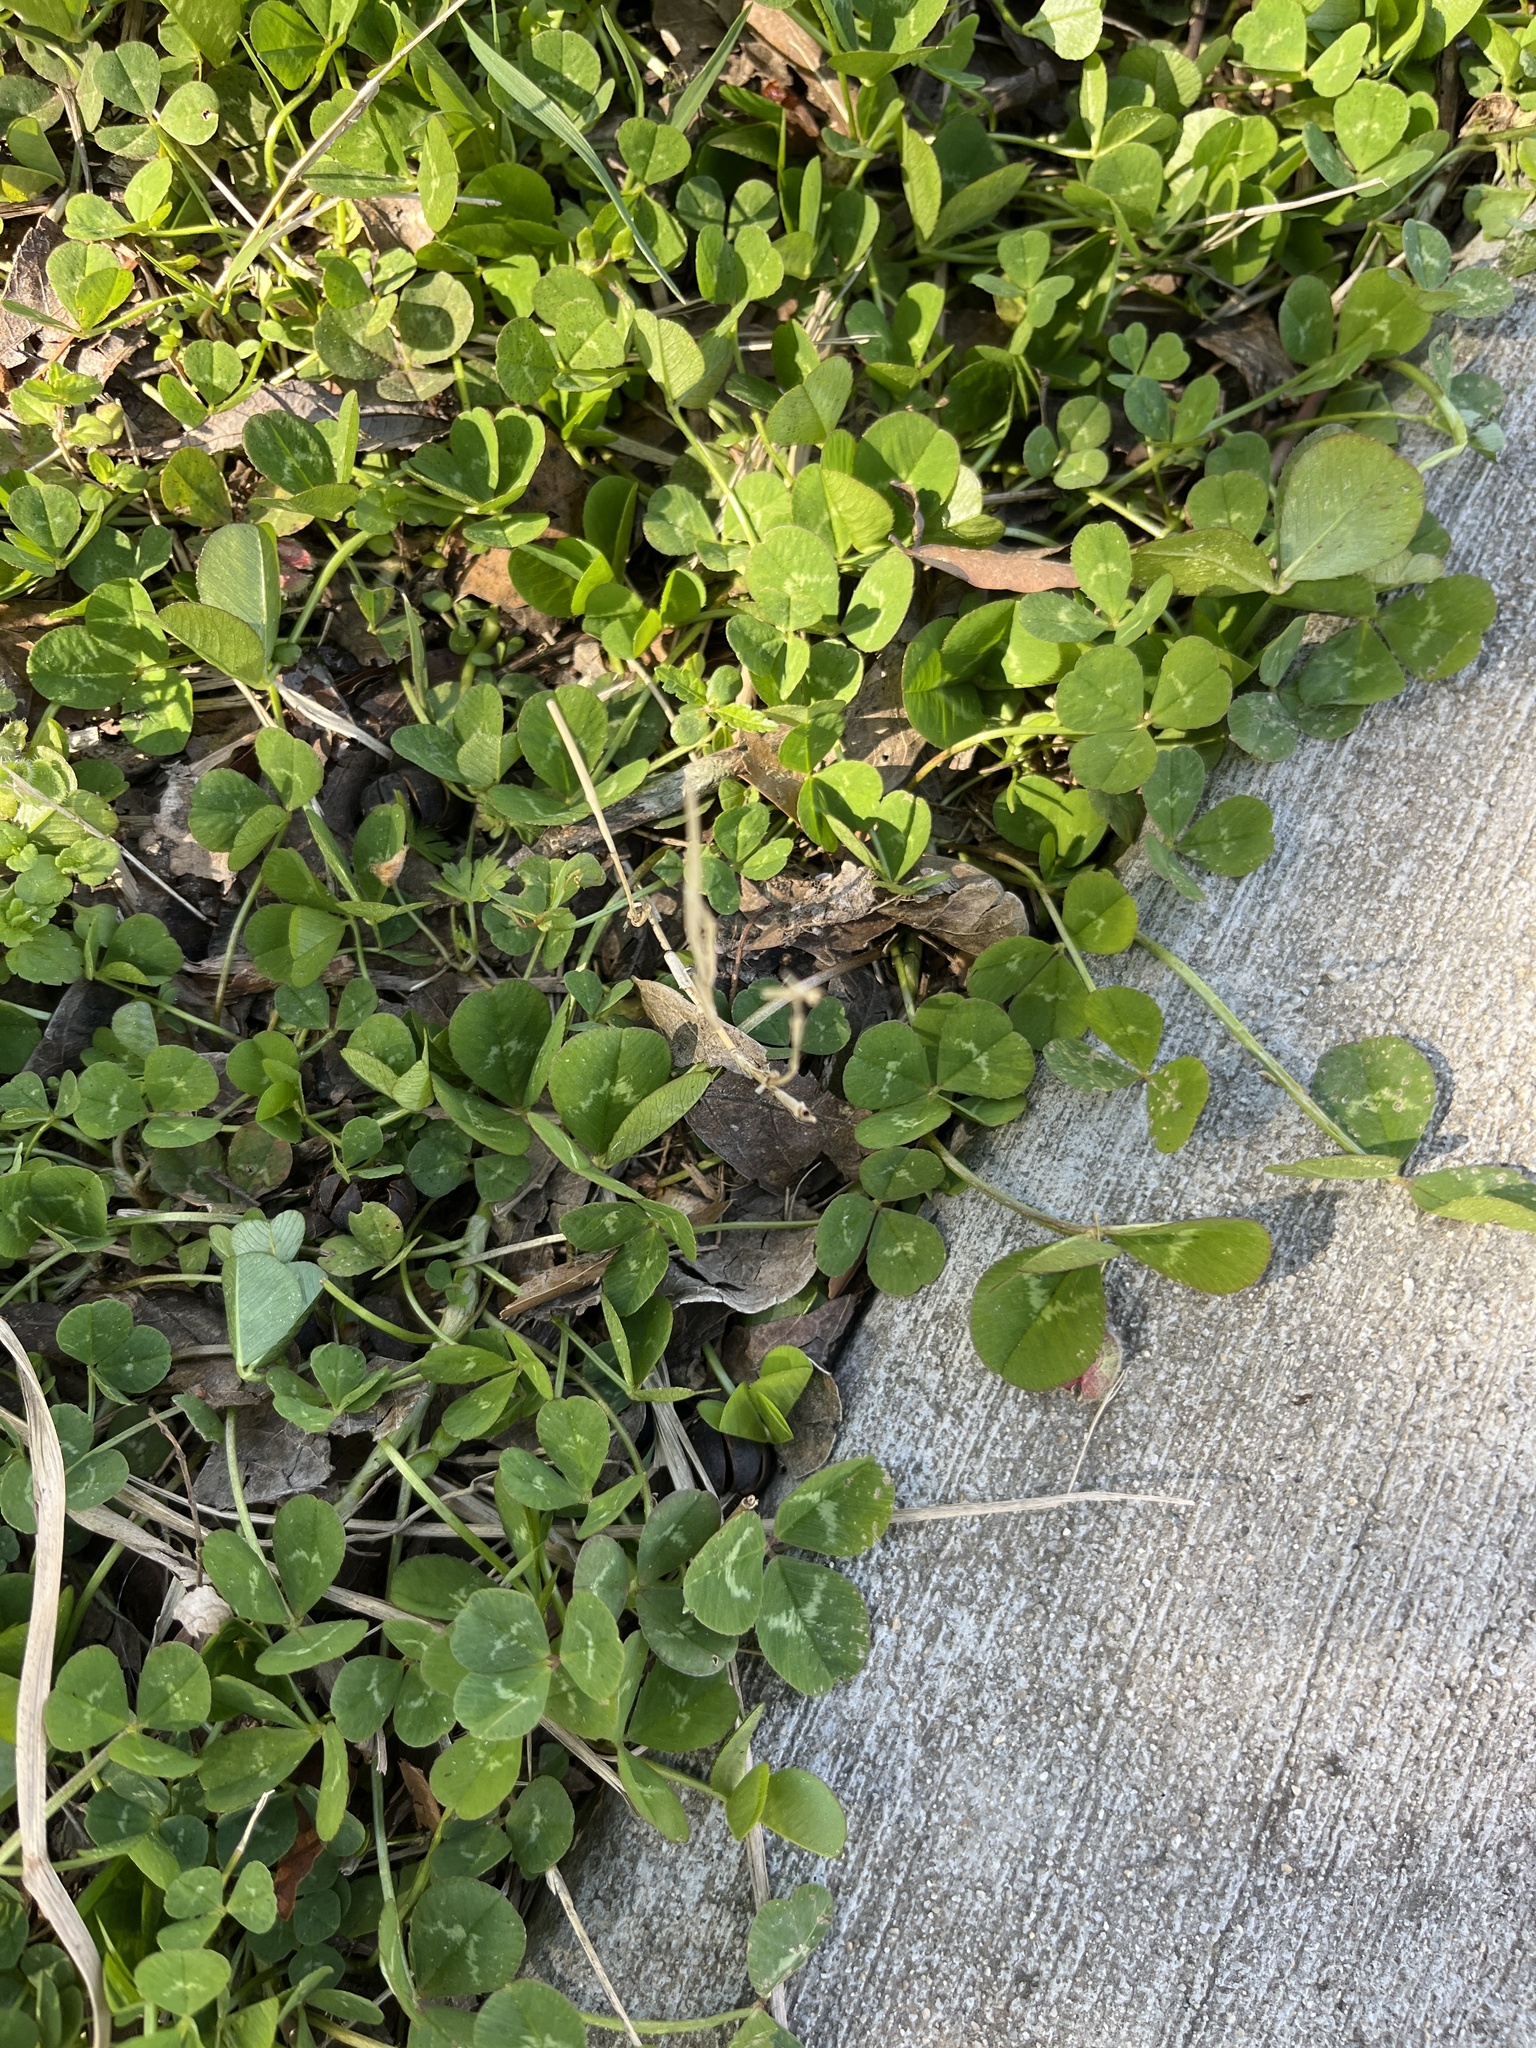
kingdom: Plantae
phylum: Tracheophyta
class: Magnoliopsida
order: Fabales
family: Fabaceae
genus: Trifolium
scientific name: Trifolium repens
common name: White clover
